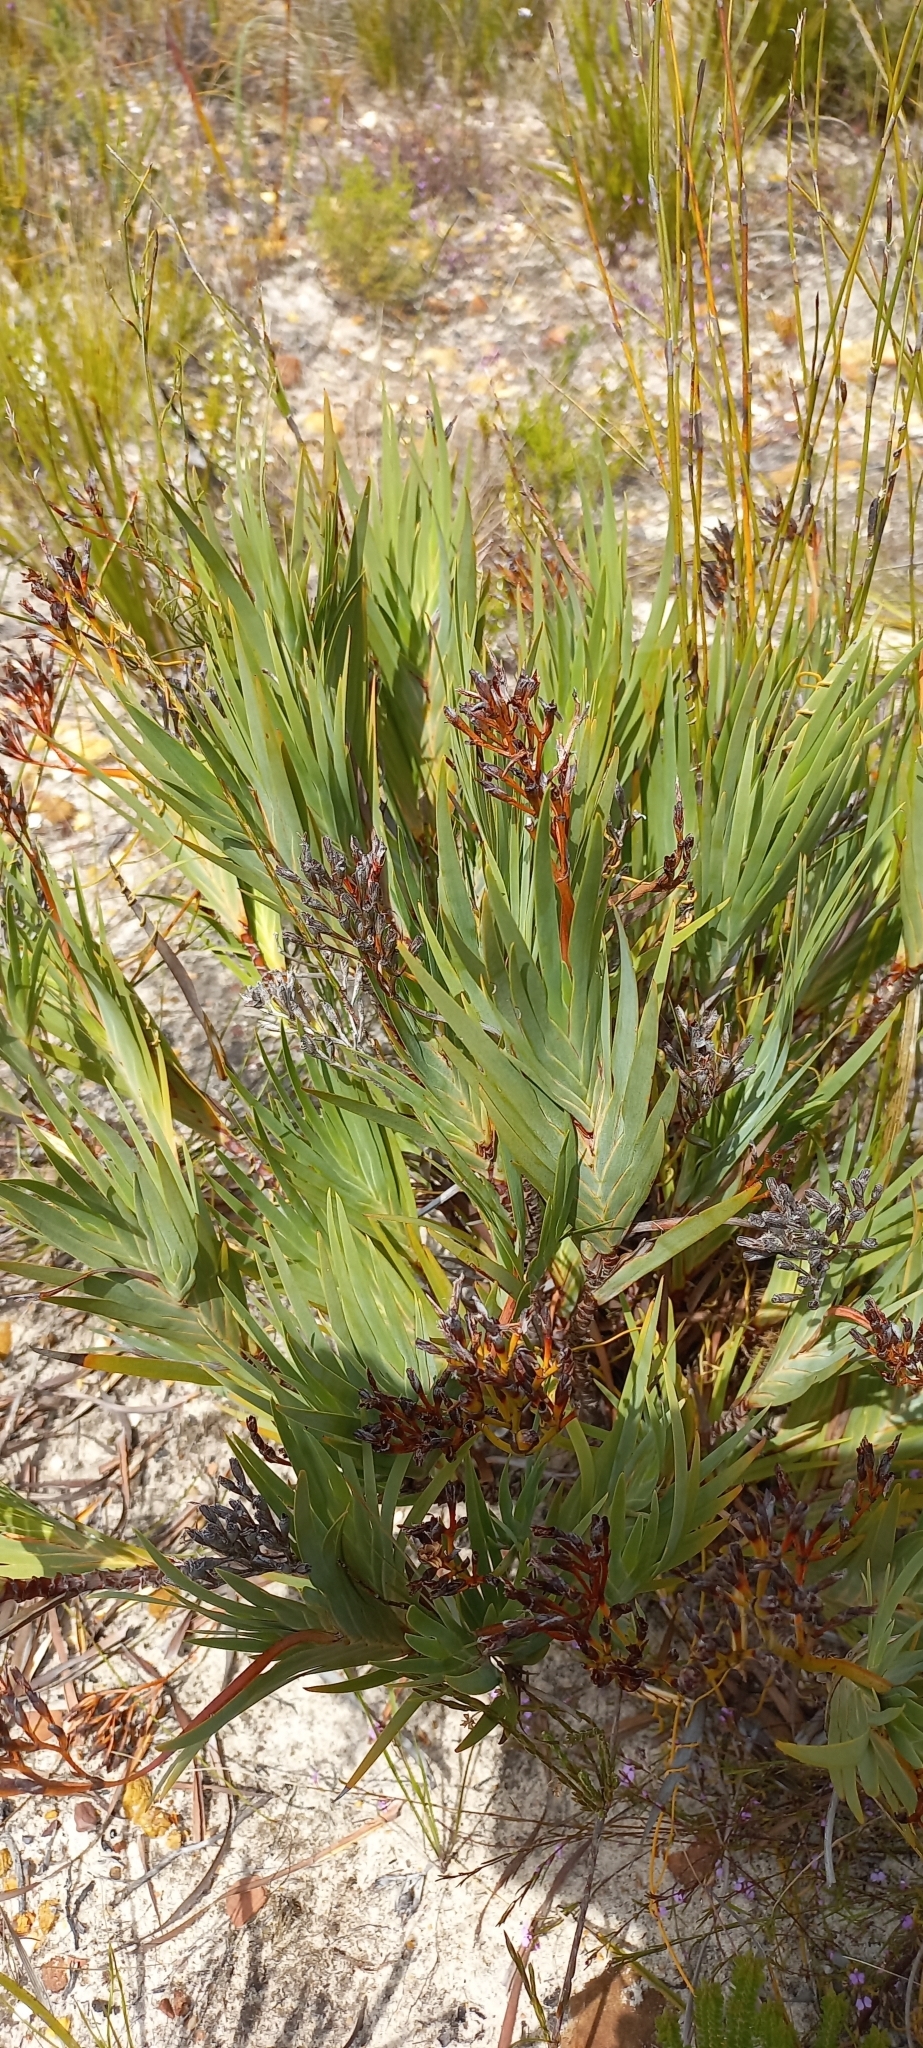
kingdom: Plantae
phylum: Tracheophyta
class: Liliopsida
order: Asparagales
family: Iridaceae
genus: Nivenia
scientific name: Nivenia stokoei
